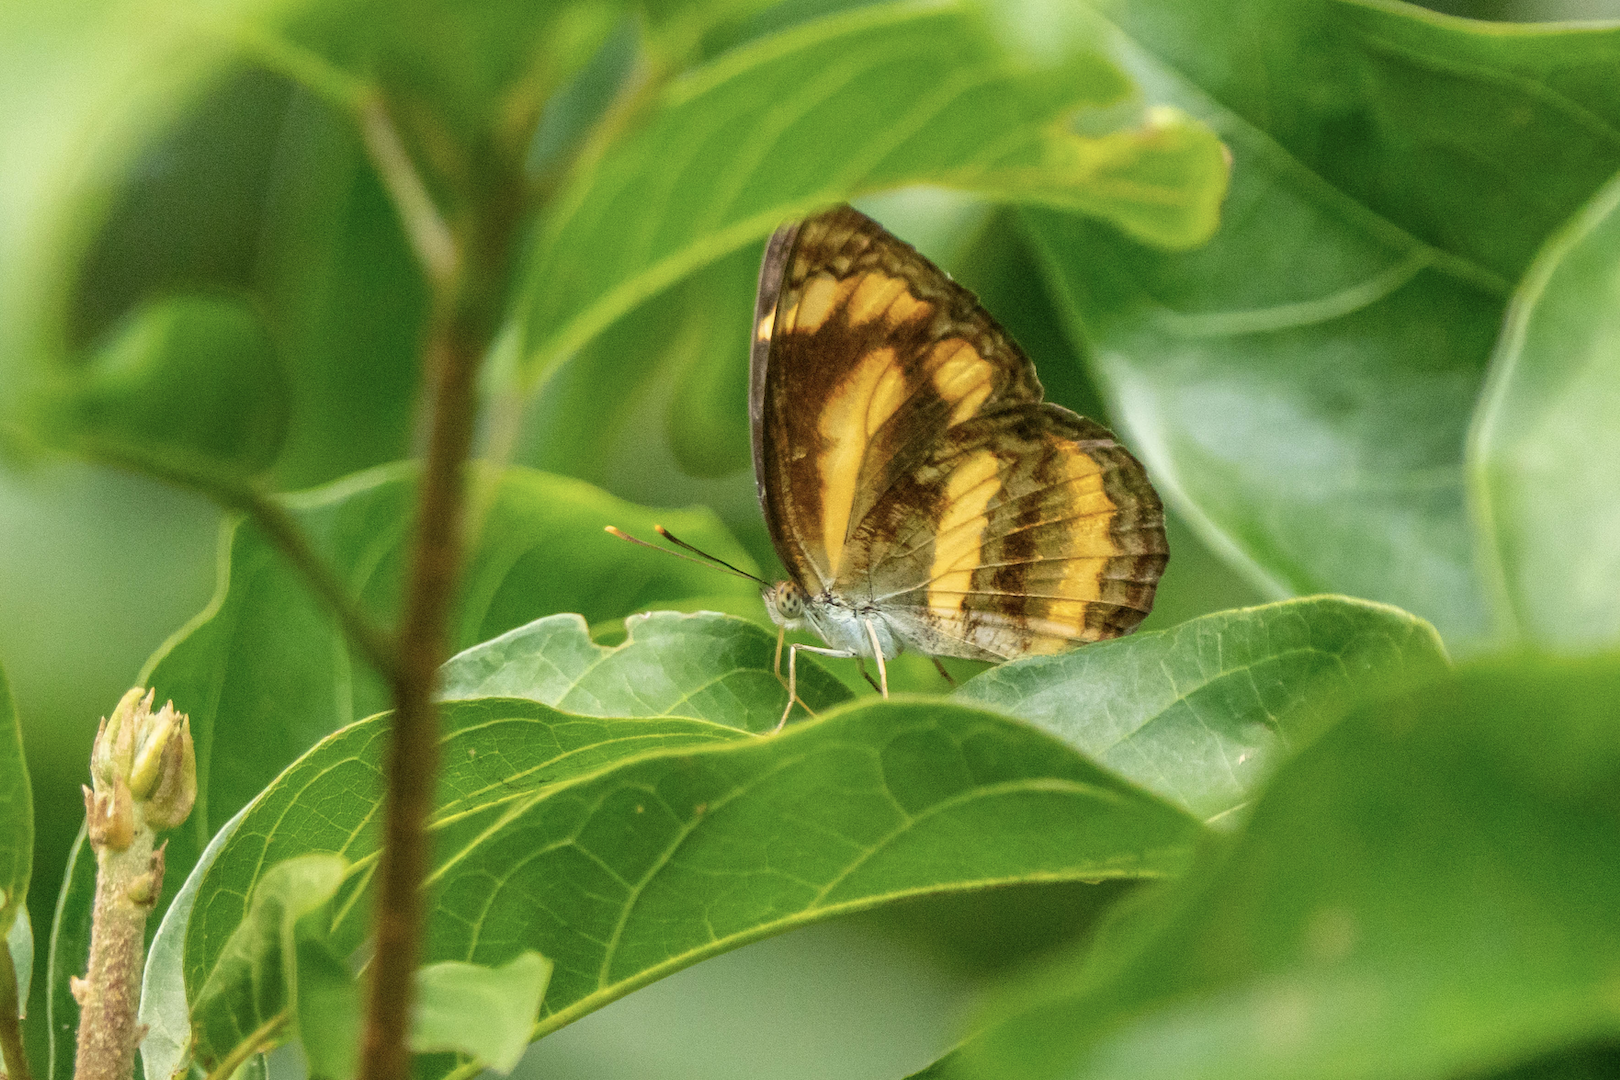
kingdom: Animalia
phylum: Arthropoda
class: Insecta
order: Lepidoptera
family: Nymphalidae
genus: Pantoporia
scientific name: Pantoporia hordonia
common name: Common lascar
